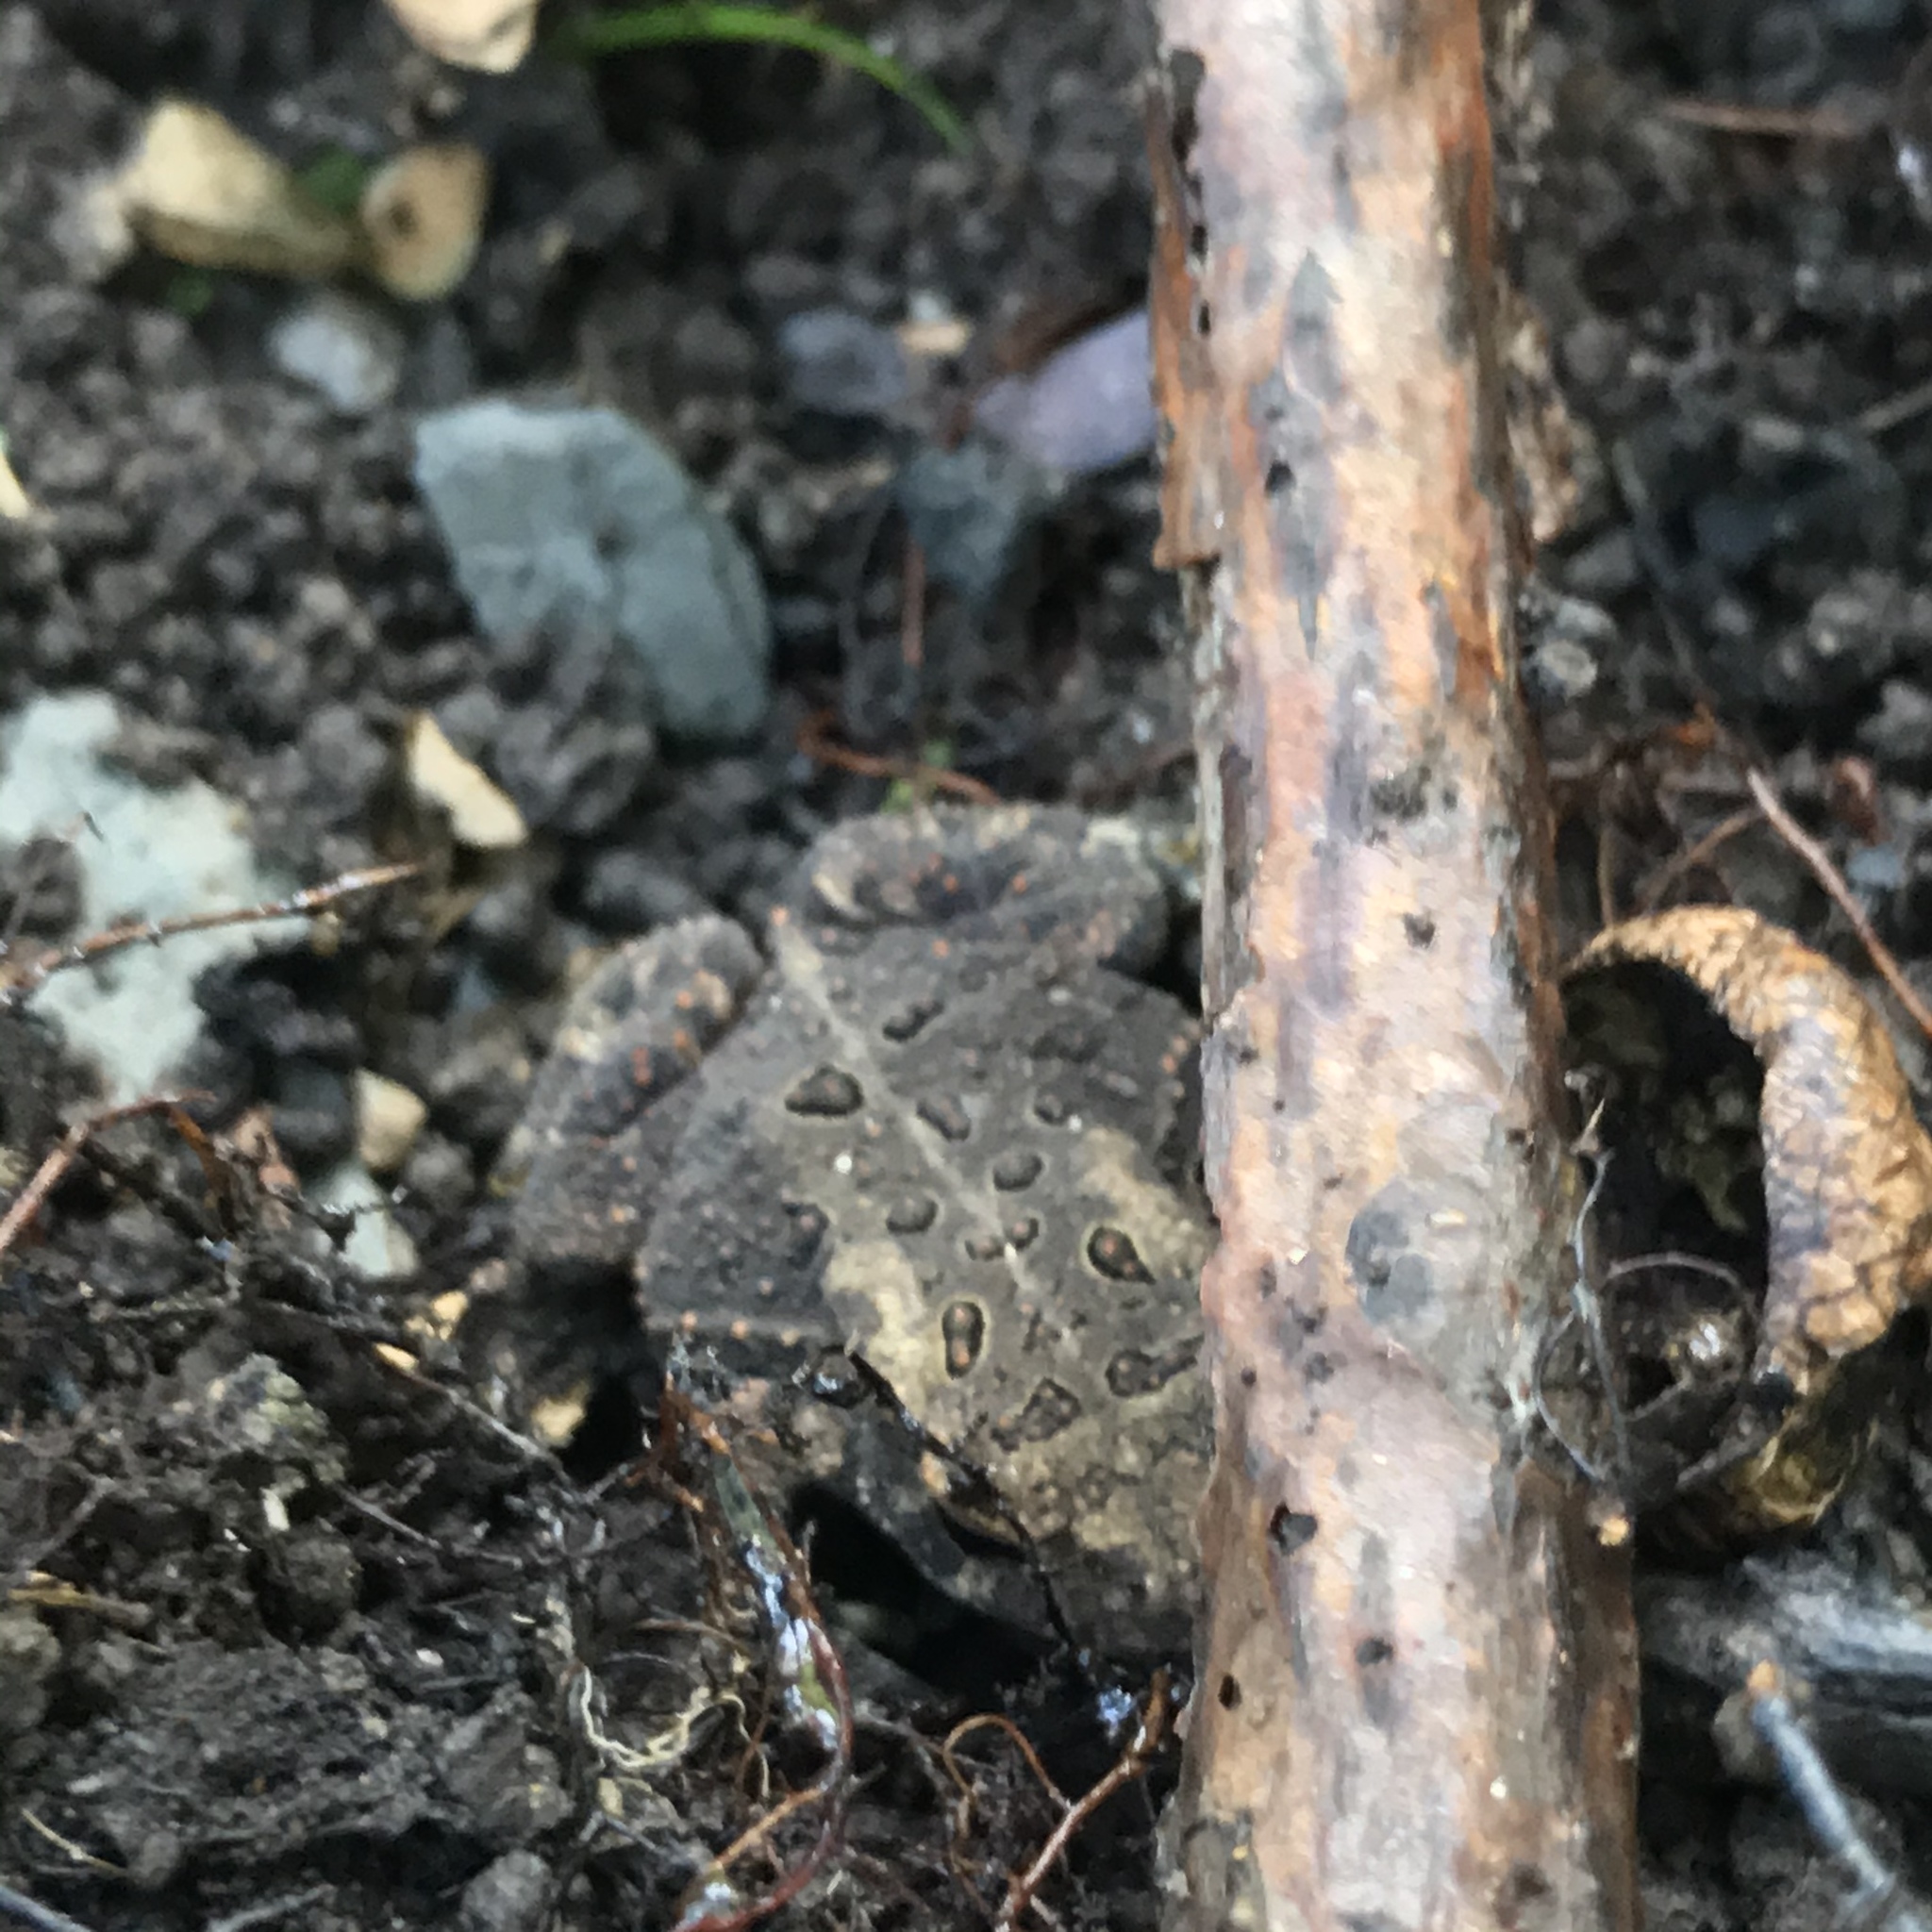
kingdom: Animalia
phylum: Chordata
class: Amphibia
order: Anura
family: Bufonidae
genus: Anaxyrus
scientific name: Anaxyrus americanus
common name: American toad
